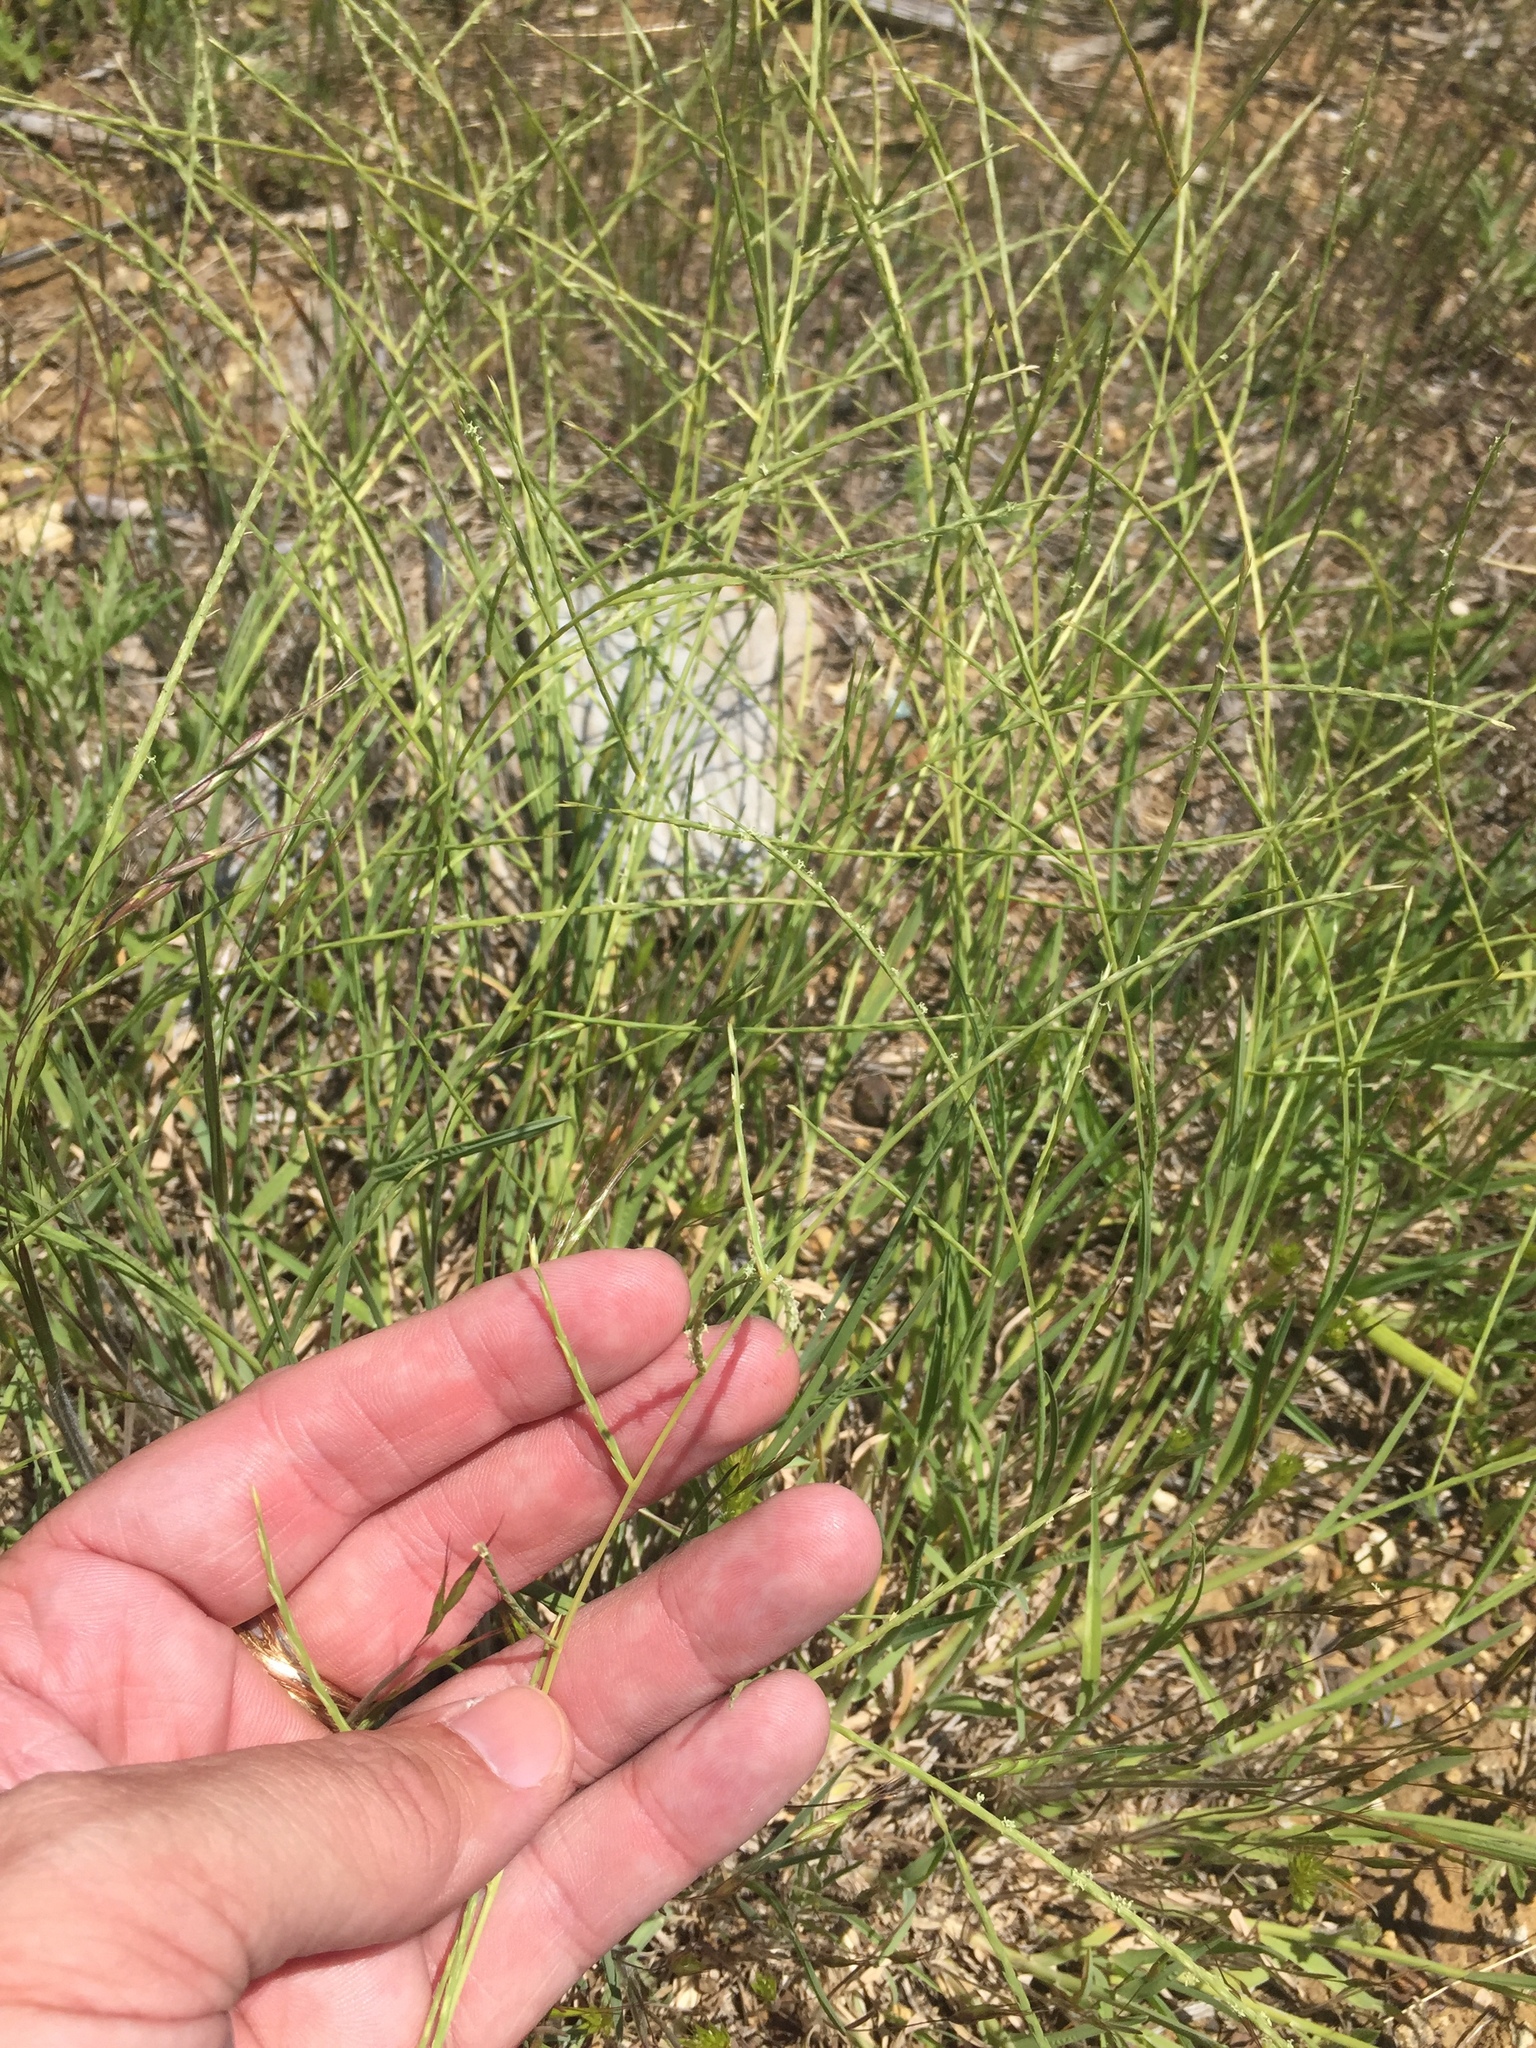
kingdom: Plantae
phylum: Tracheophyta
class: Liliopsida
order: Poales
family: Poaceae
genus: Muhlenbergia
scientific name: Muhlenbergia paniculata
